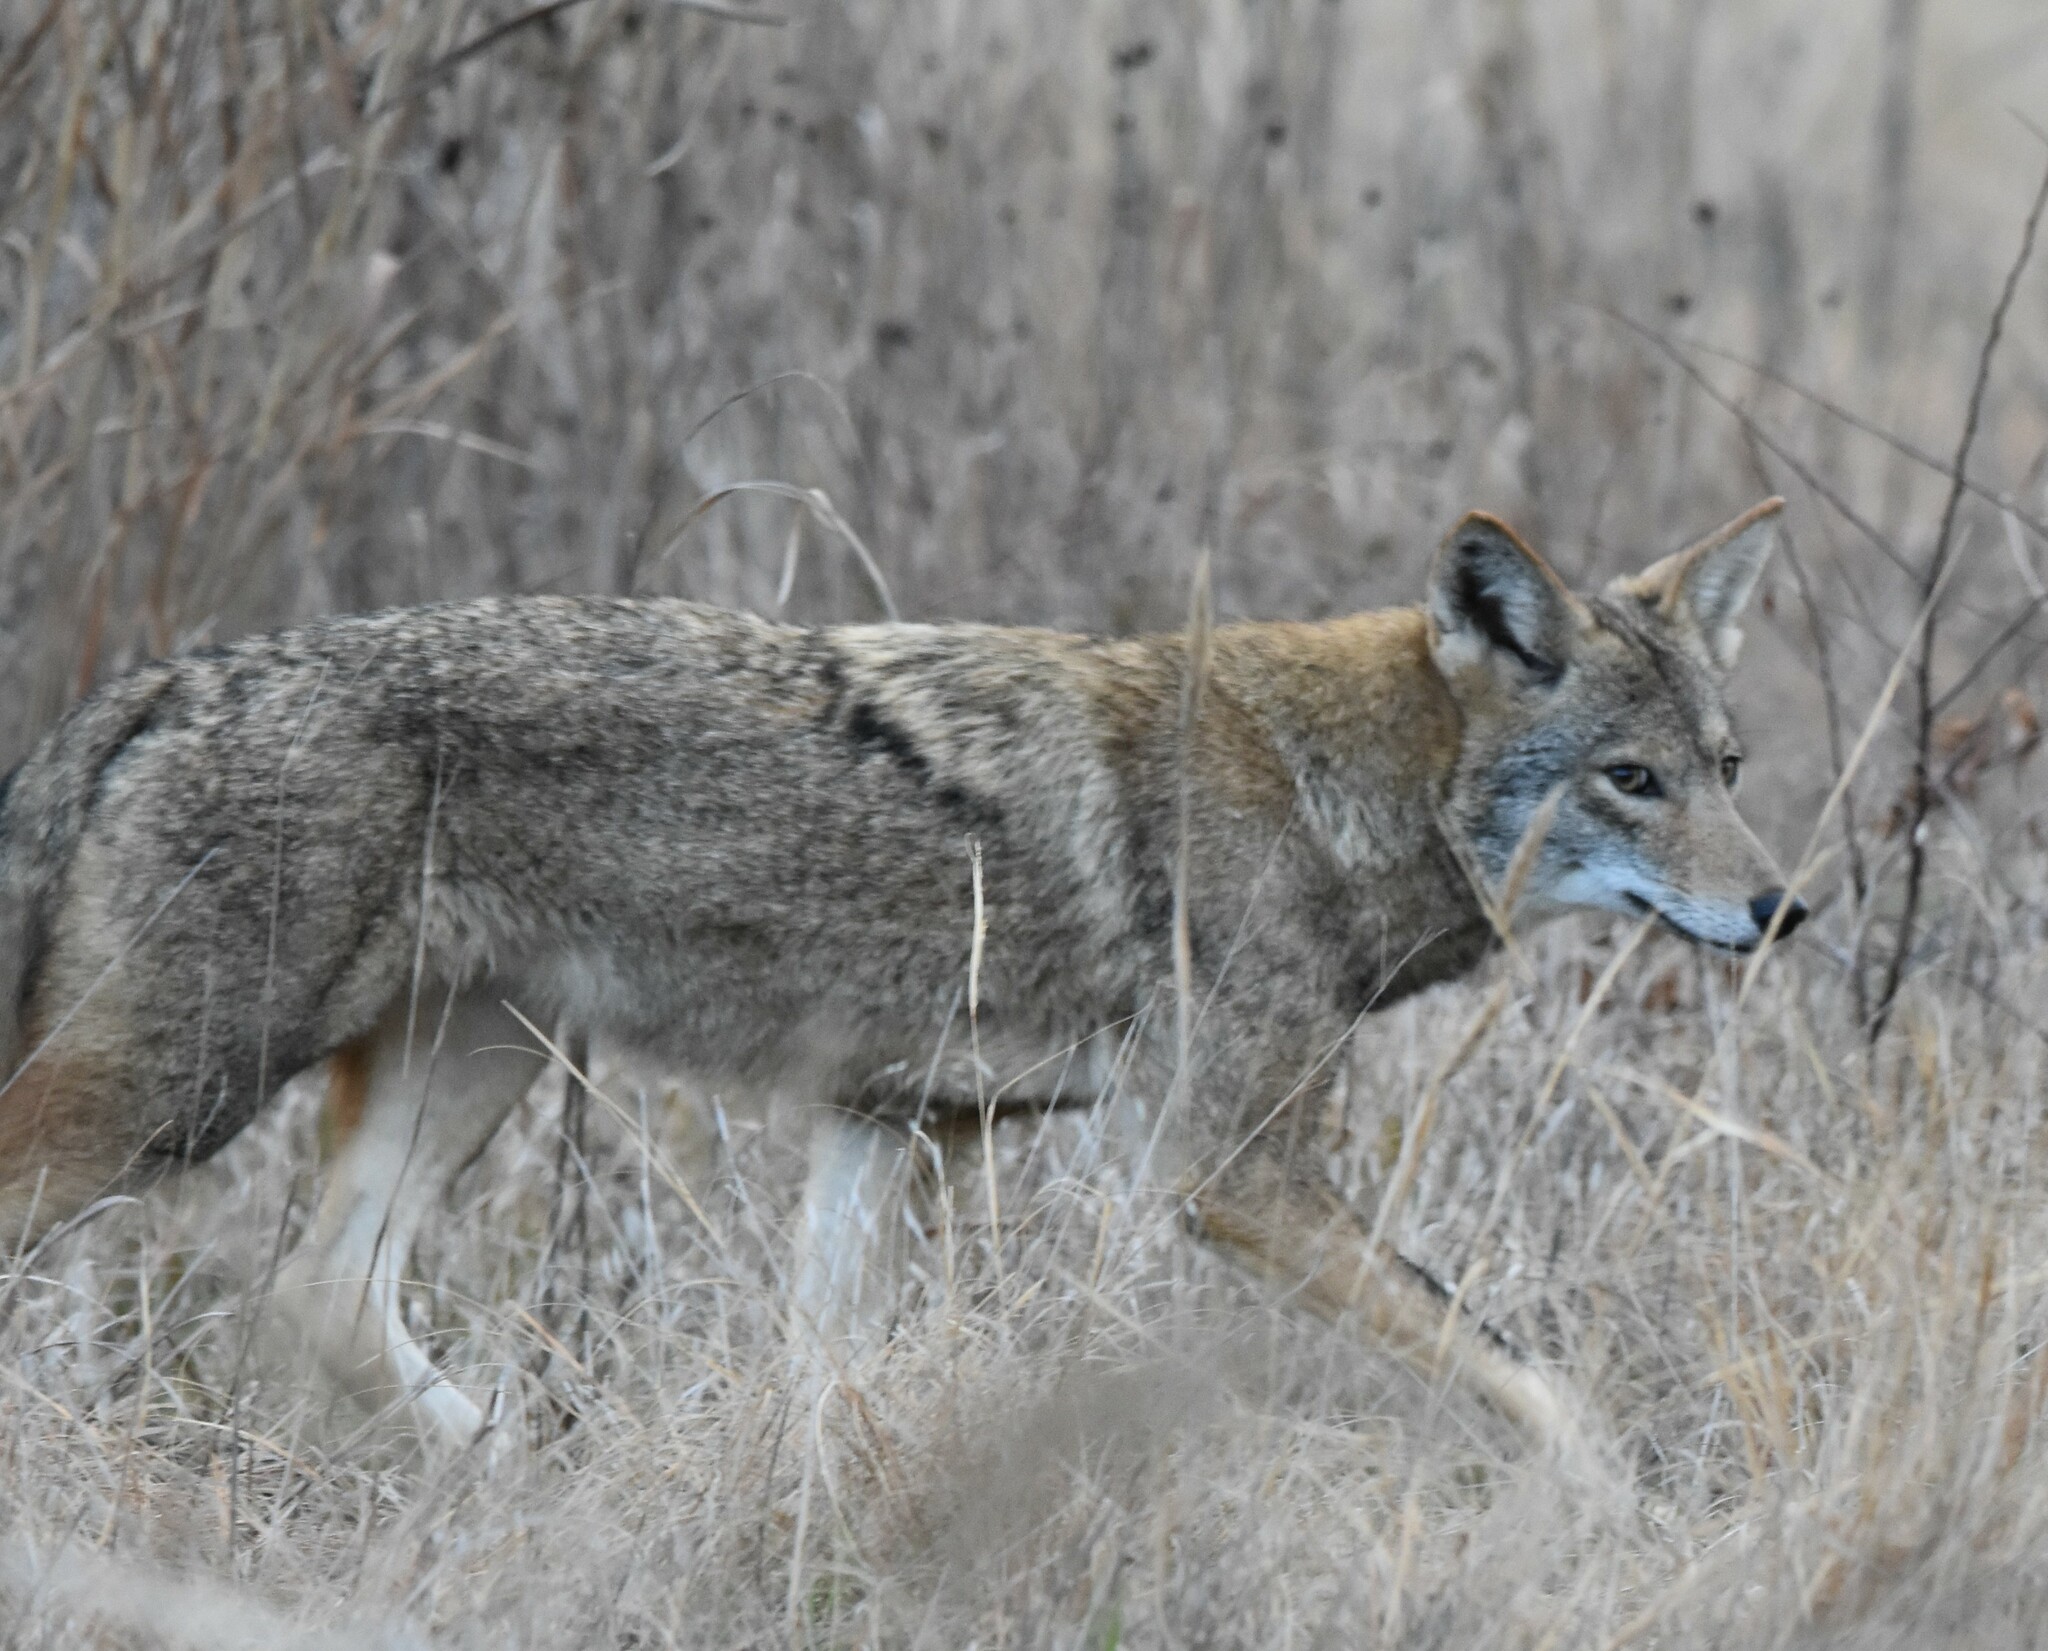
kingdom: Animalia
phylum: Chordata
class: Mammalia
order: Carnivora
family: Canidae
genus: Canis
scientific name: Canis latrans
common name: Coyote
